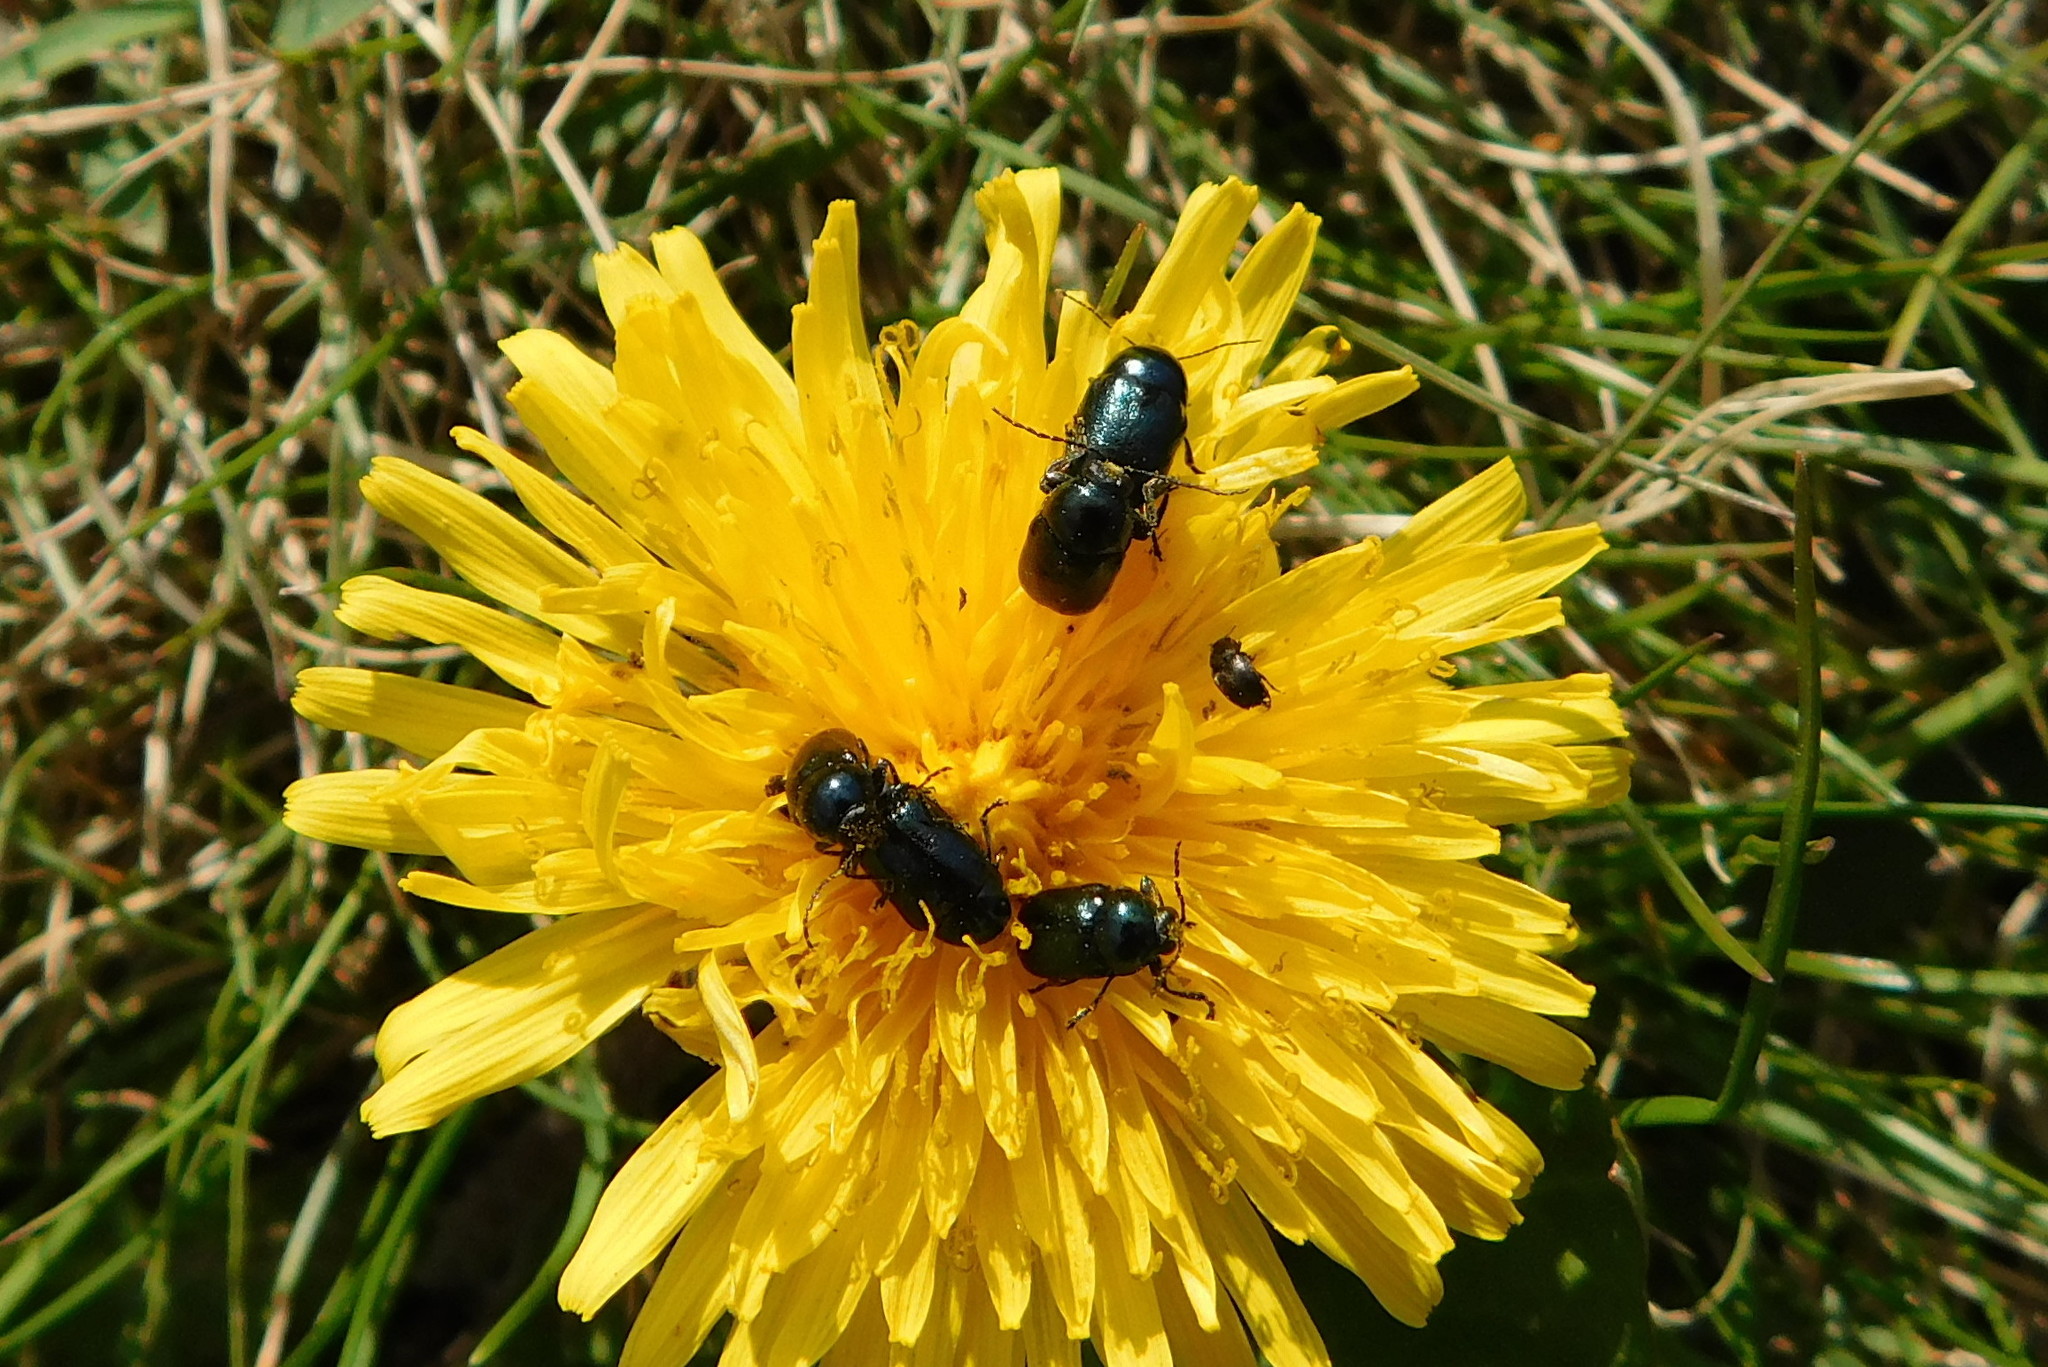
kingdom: Animalia
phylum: Arthropoda
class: Insecta
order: Coleoptera
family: Chrysomelidae
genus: Cryptocephalus
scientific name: Cryptocephalus violaceus
